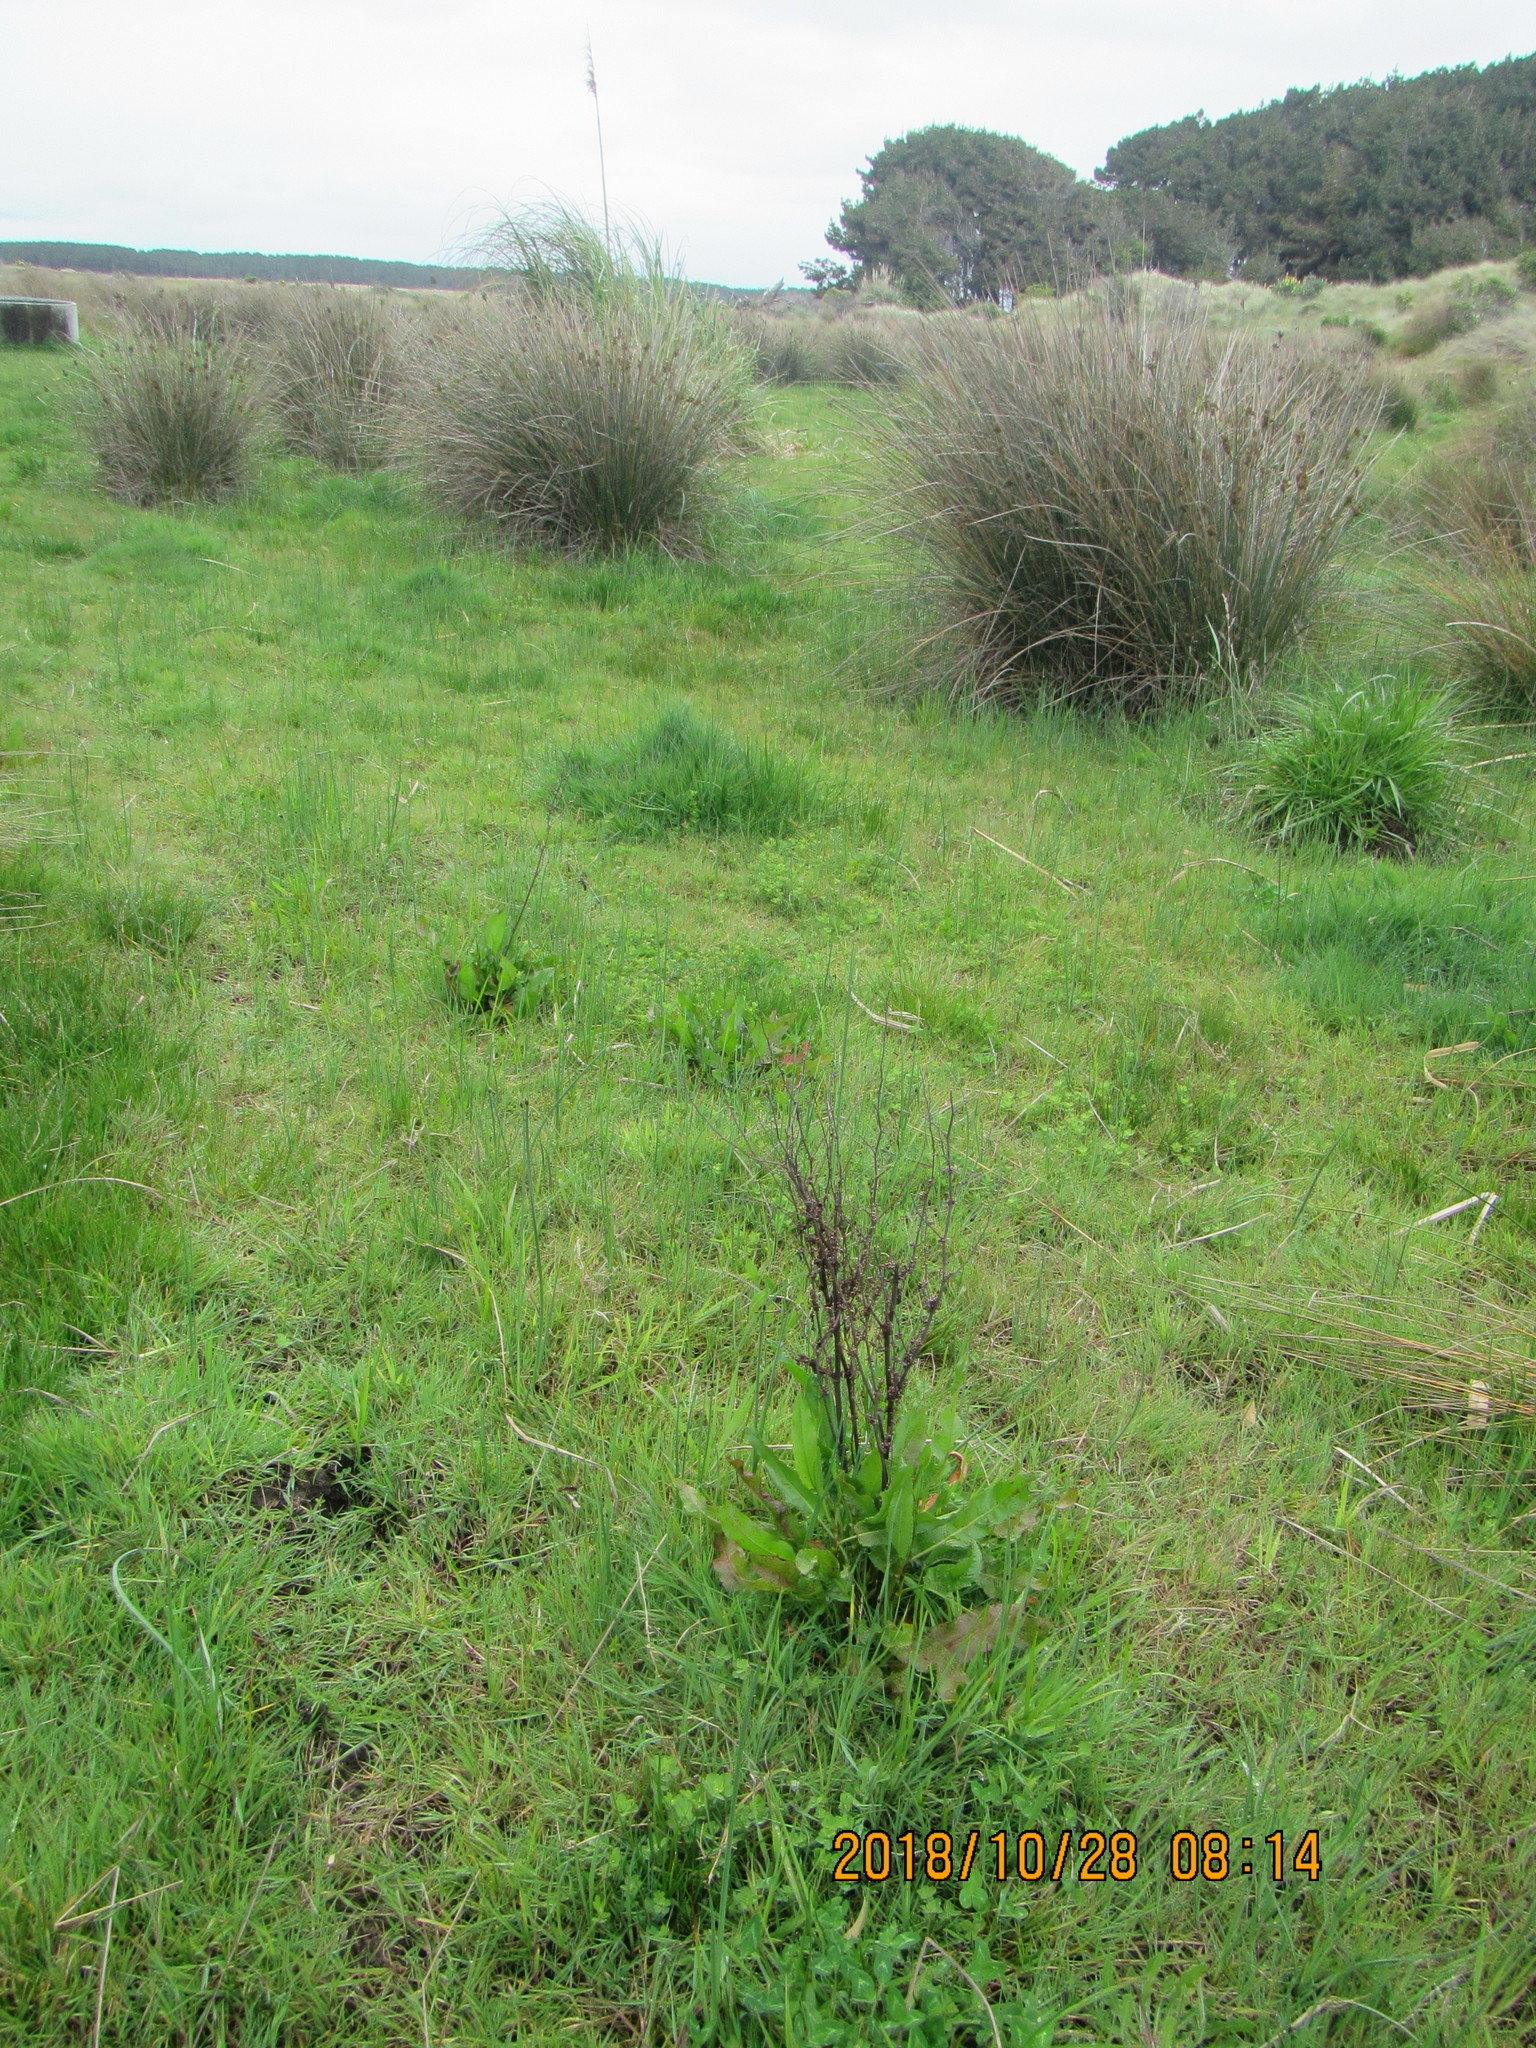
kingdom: Plantae
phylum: Tracheophyta
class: Magnoliopsida
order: Caryophyllales
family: Polygonaceae
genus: Rumex
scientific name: Rumex crispus
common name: Curled dock
